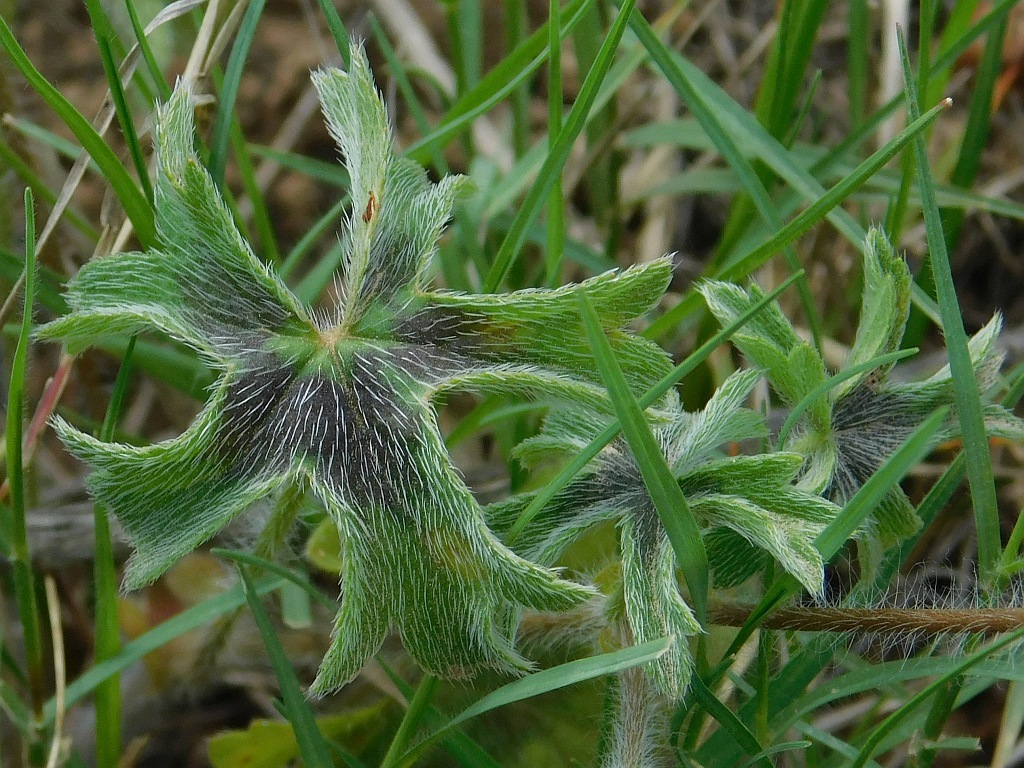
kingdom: Plantae
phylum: Tracheophyta
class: Magnoliopsida
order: Geraniales
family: Geraniaceae
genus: Pelargonium
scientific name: Pelargonium alchemilloides
